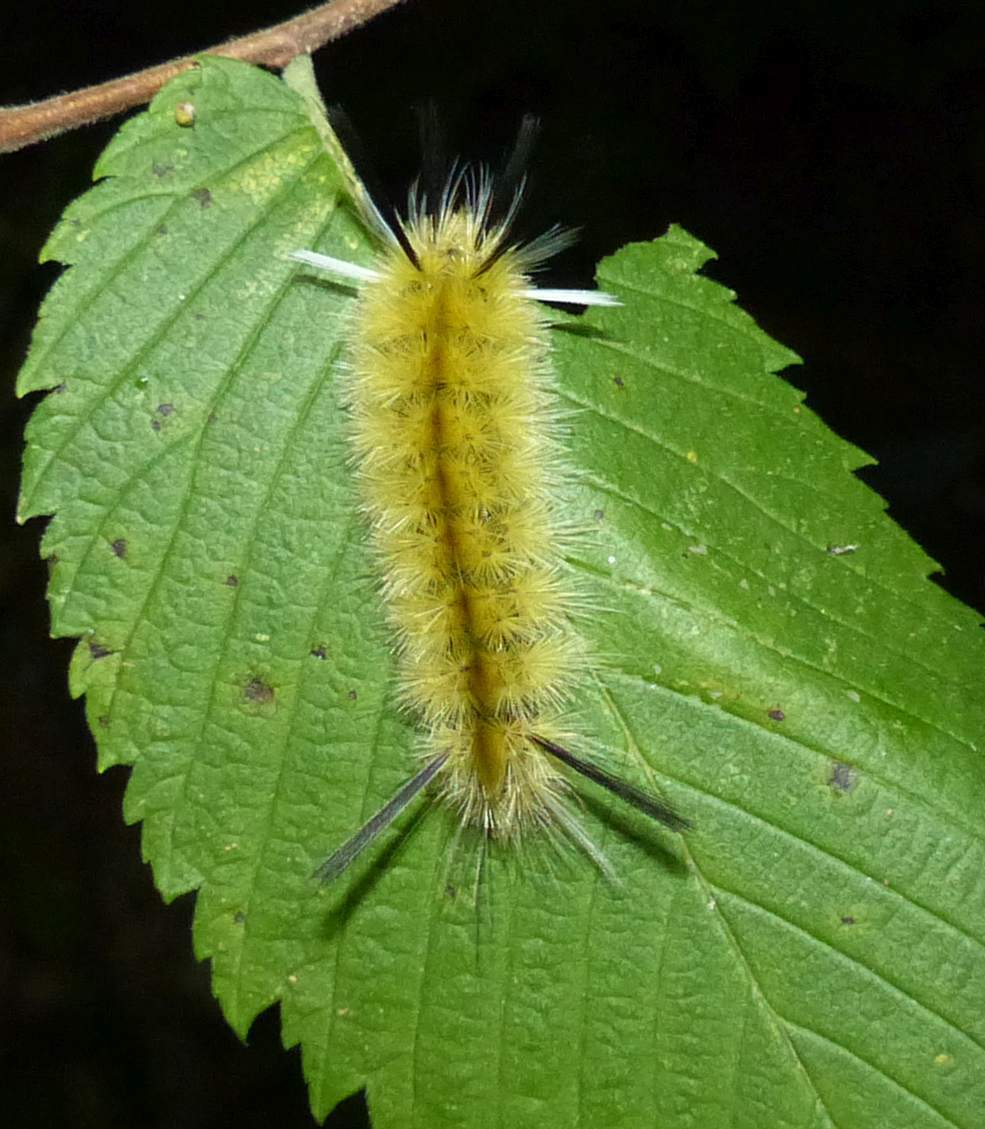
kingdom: Animalia
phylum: Arthropoda
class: Insecta
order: Lepidoptera
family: Erebidae
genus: Halysidota
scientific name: Halysidota tessellaris
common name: Banded tussock moth
